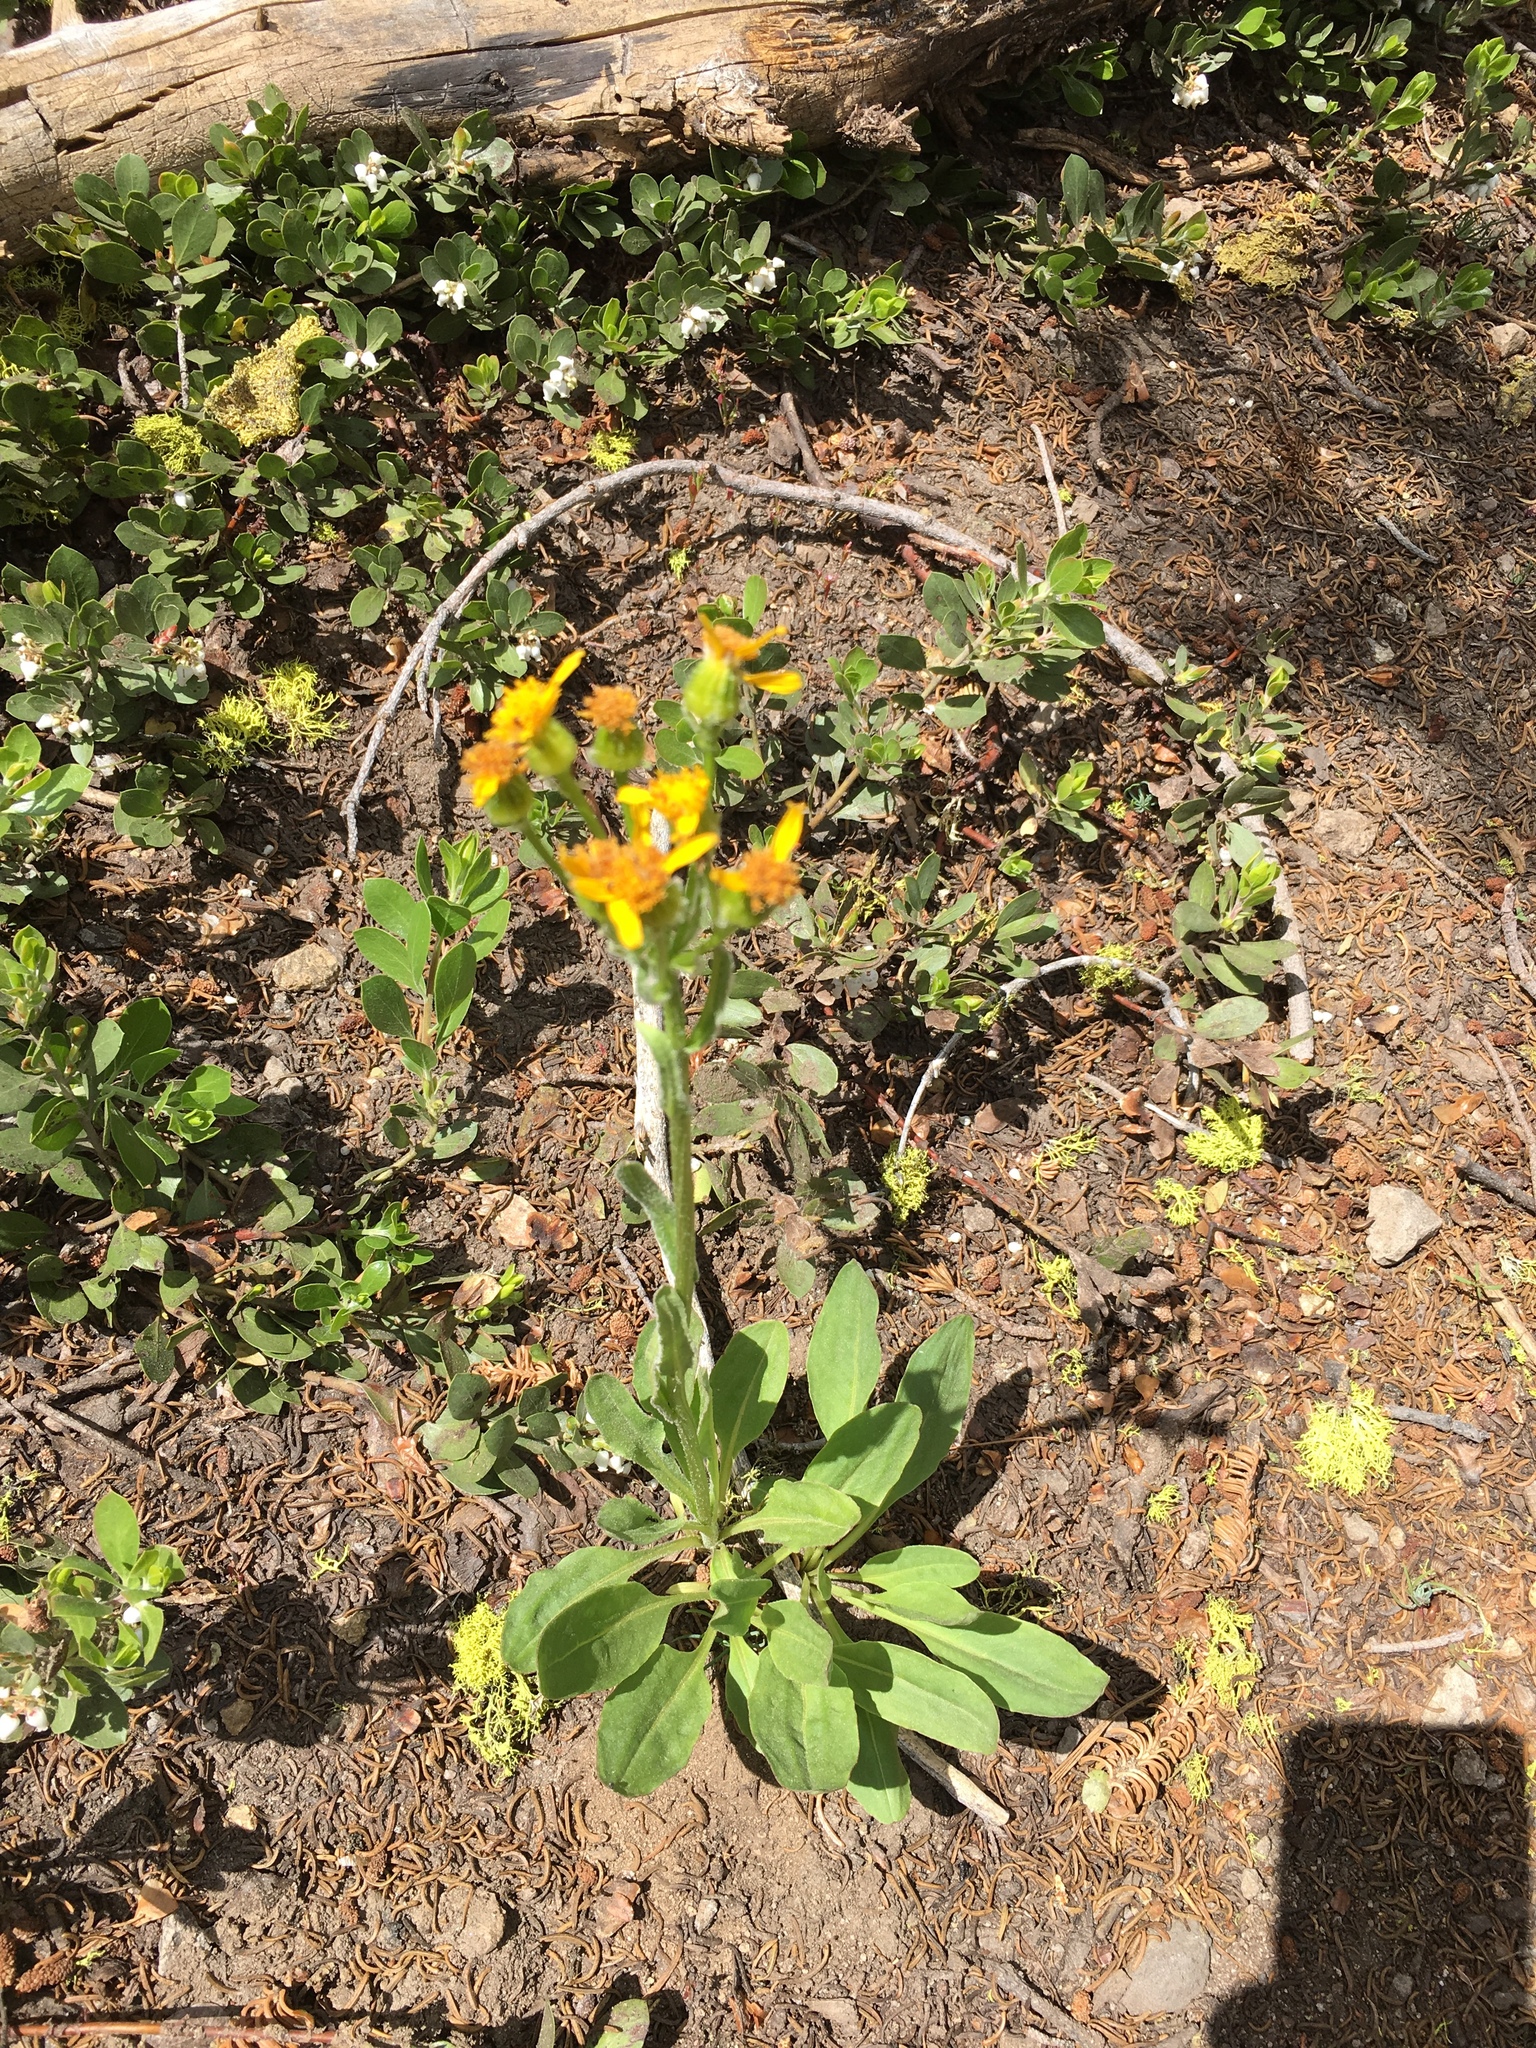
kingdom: Plantae
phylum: Tracheophyta
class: Magnoliopsida
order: Asterales
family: Asteraceae
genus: Senecio
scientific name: Senecio integerrimus
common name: Gaugeplant
